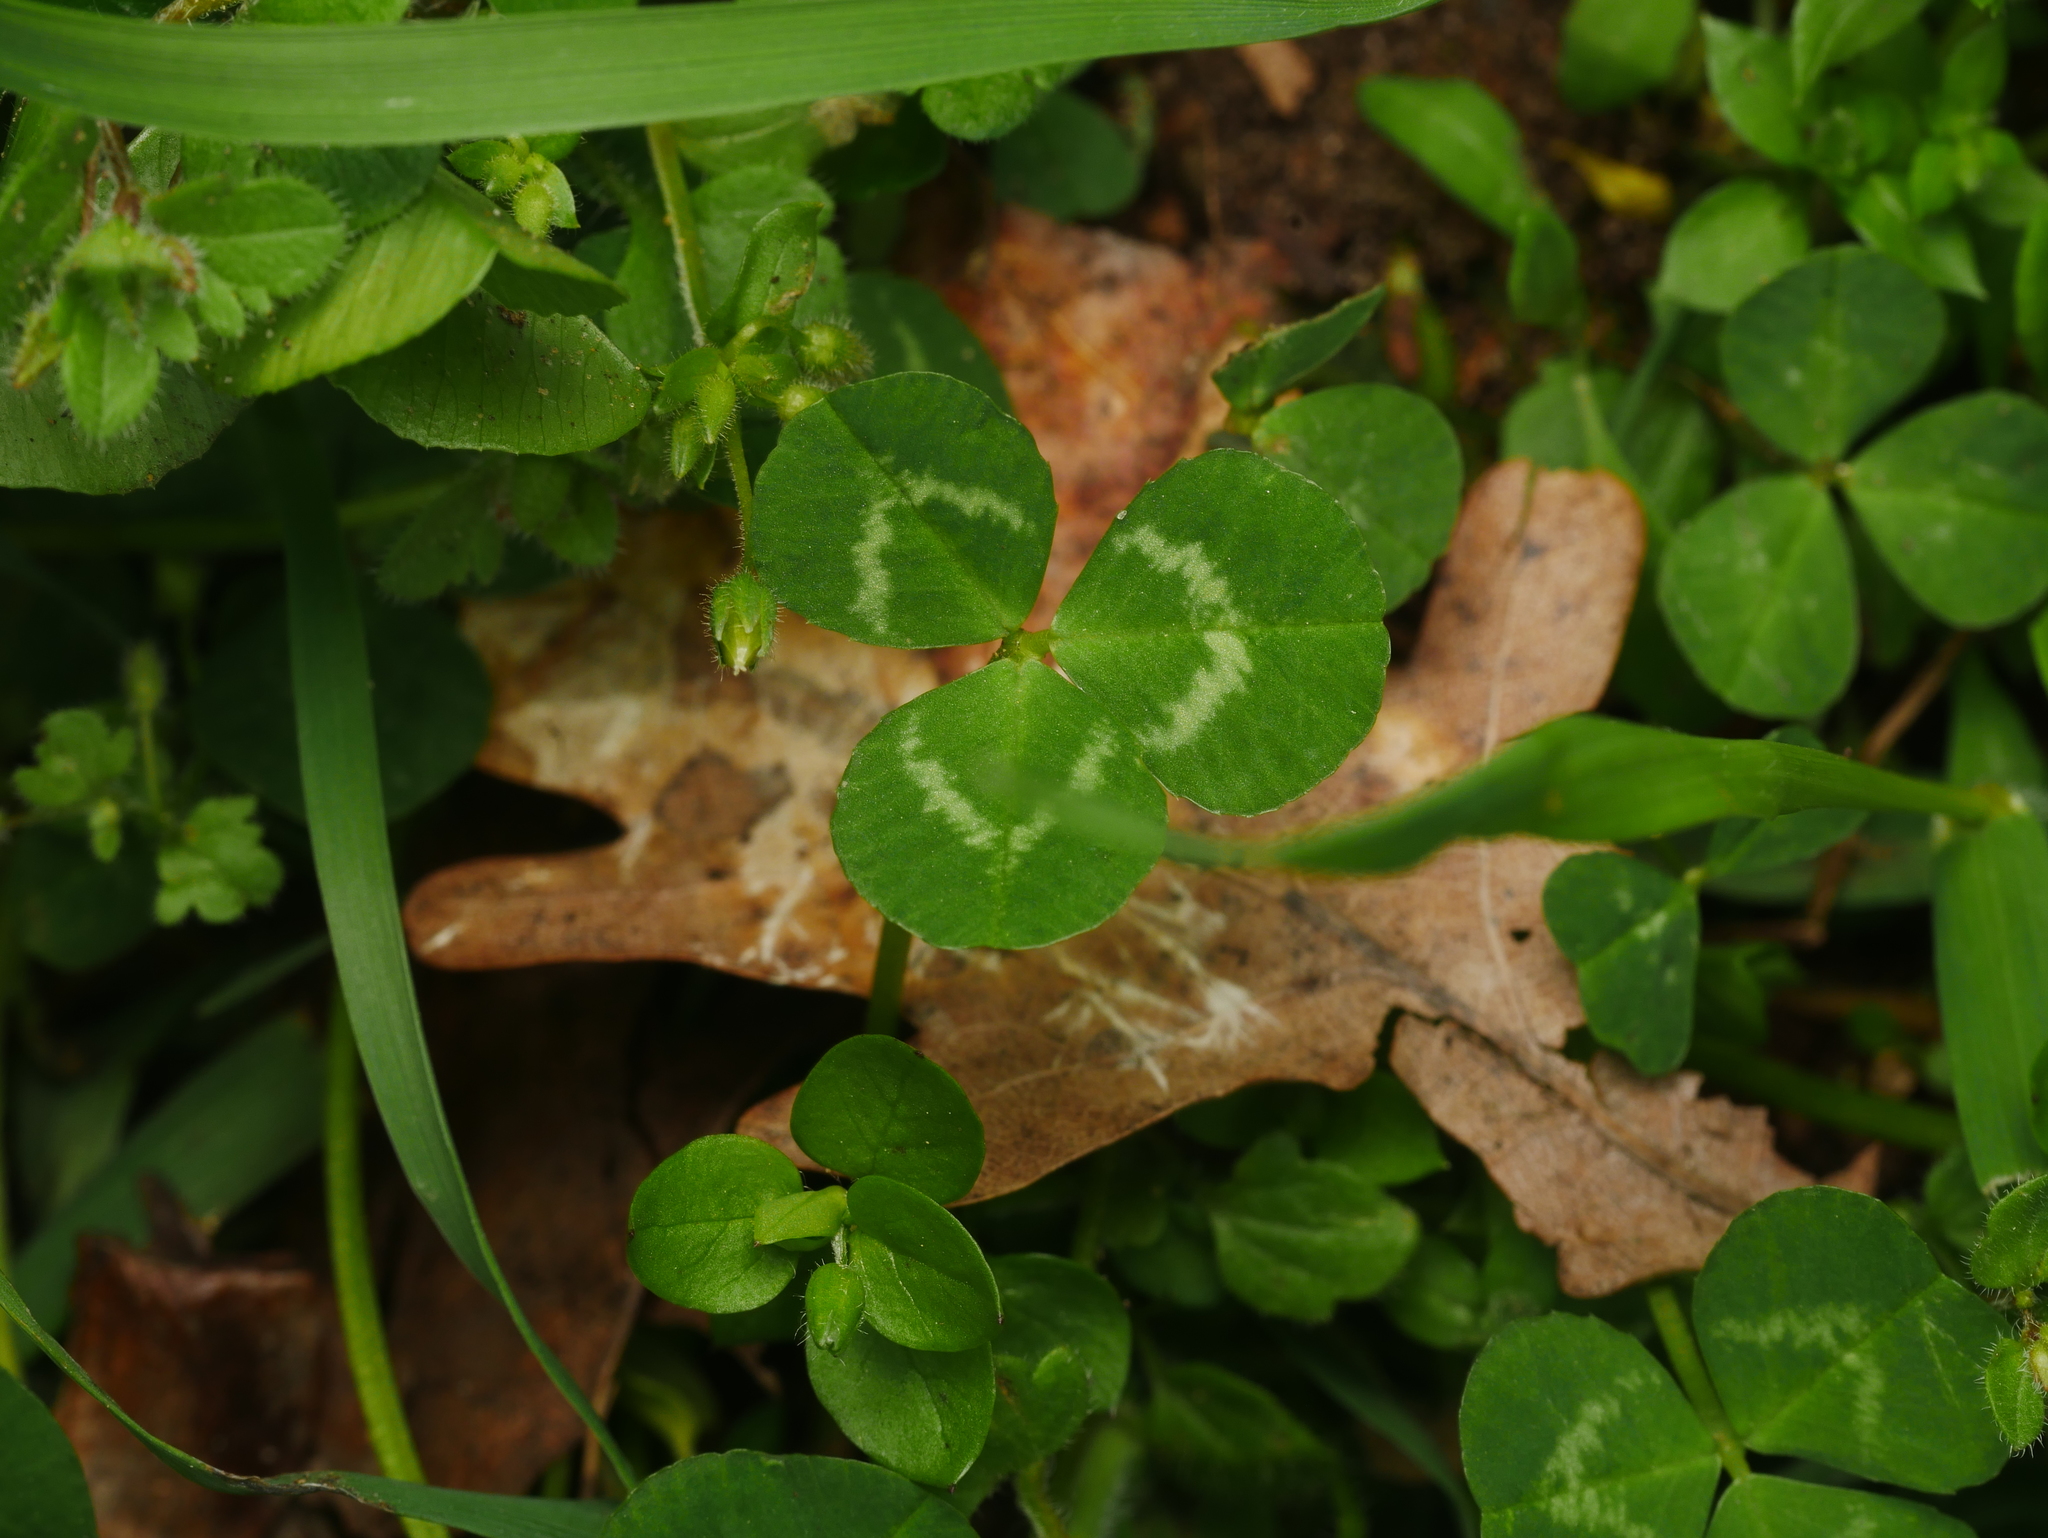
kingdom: Plantae
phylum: Tracheophyta
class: Magnoliopsida
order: Fabales
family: Fabaceae
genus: Trifolium
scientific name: Trifolium repens
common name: White clover
